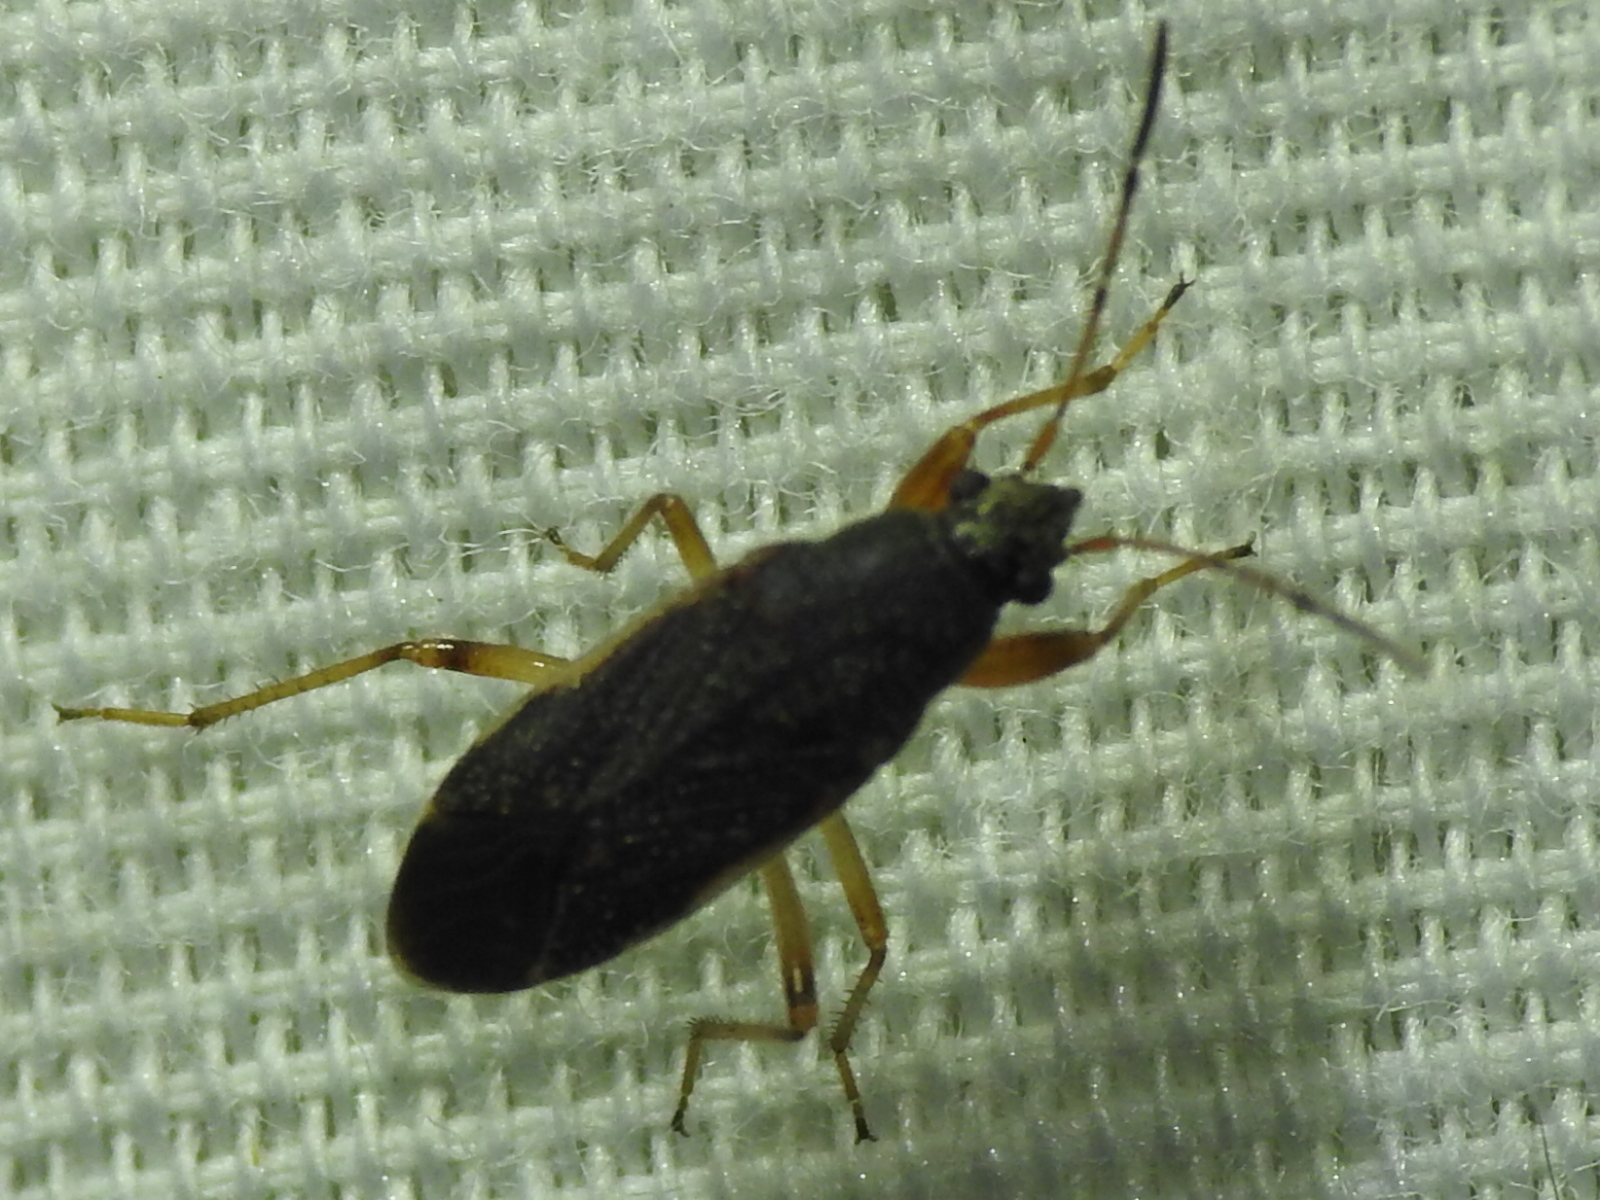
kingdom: Animalia
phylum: Arthropoda
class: Insecta
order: Hemiptera
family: Rhyparochromidae
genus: Zeridoneus
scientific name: Zeridoneus knulli
